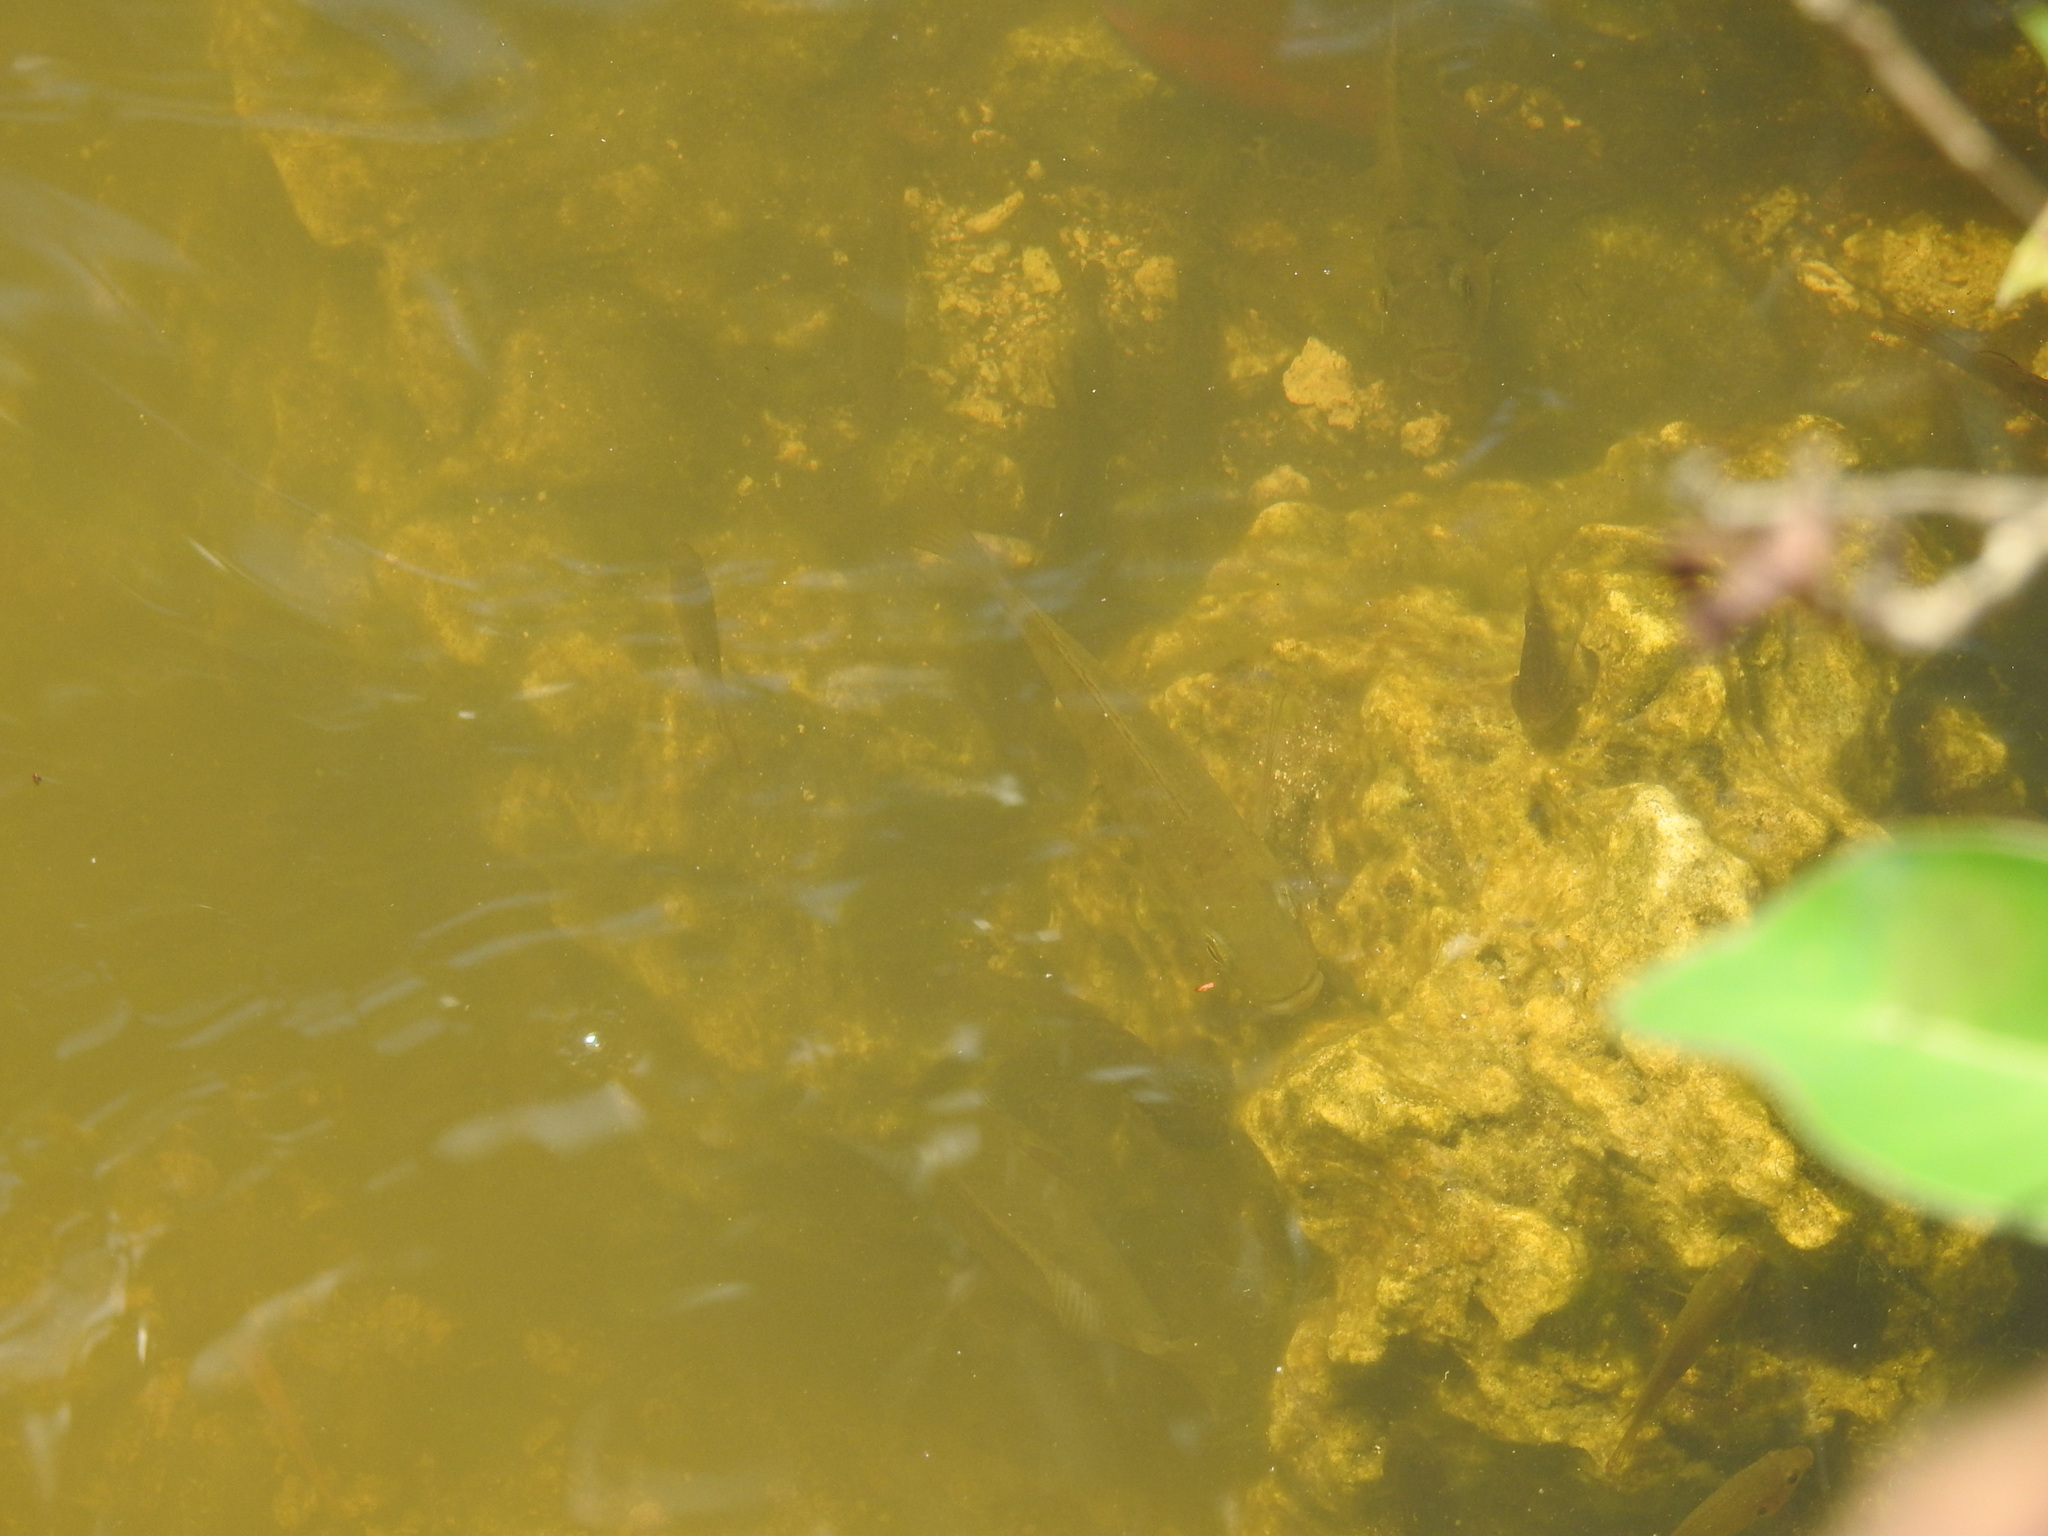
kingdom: Animalia
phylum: Chordata
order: Perciformes
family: Cichlidae
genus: Sarotherodon
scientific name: Sarotherodon melanotheron
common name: Blackchin tilapia
